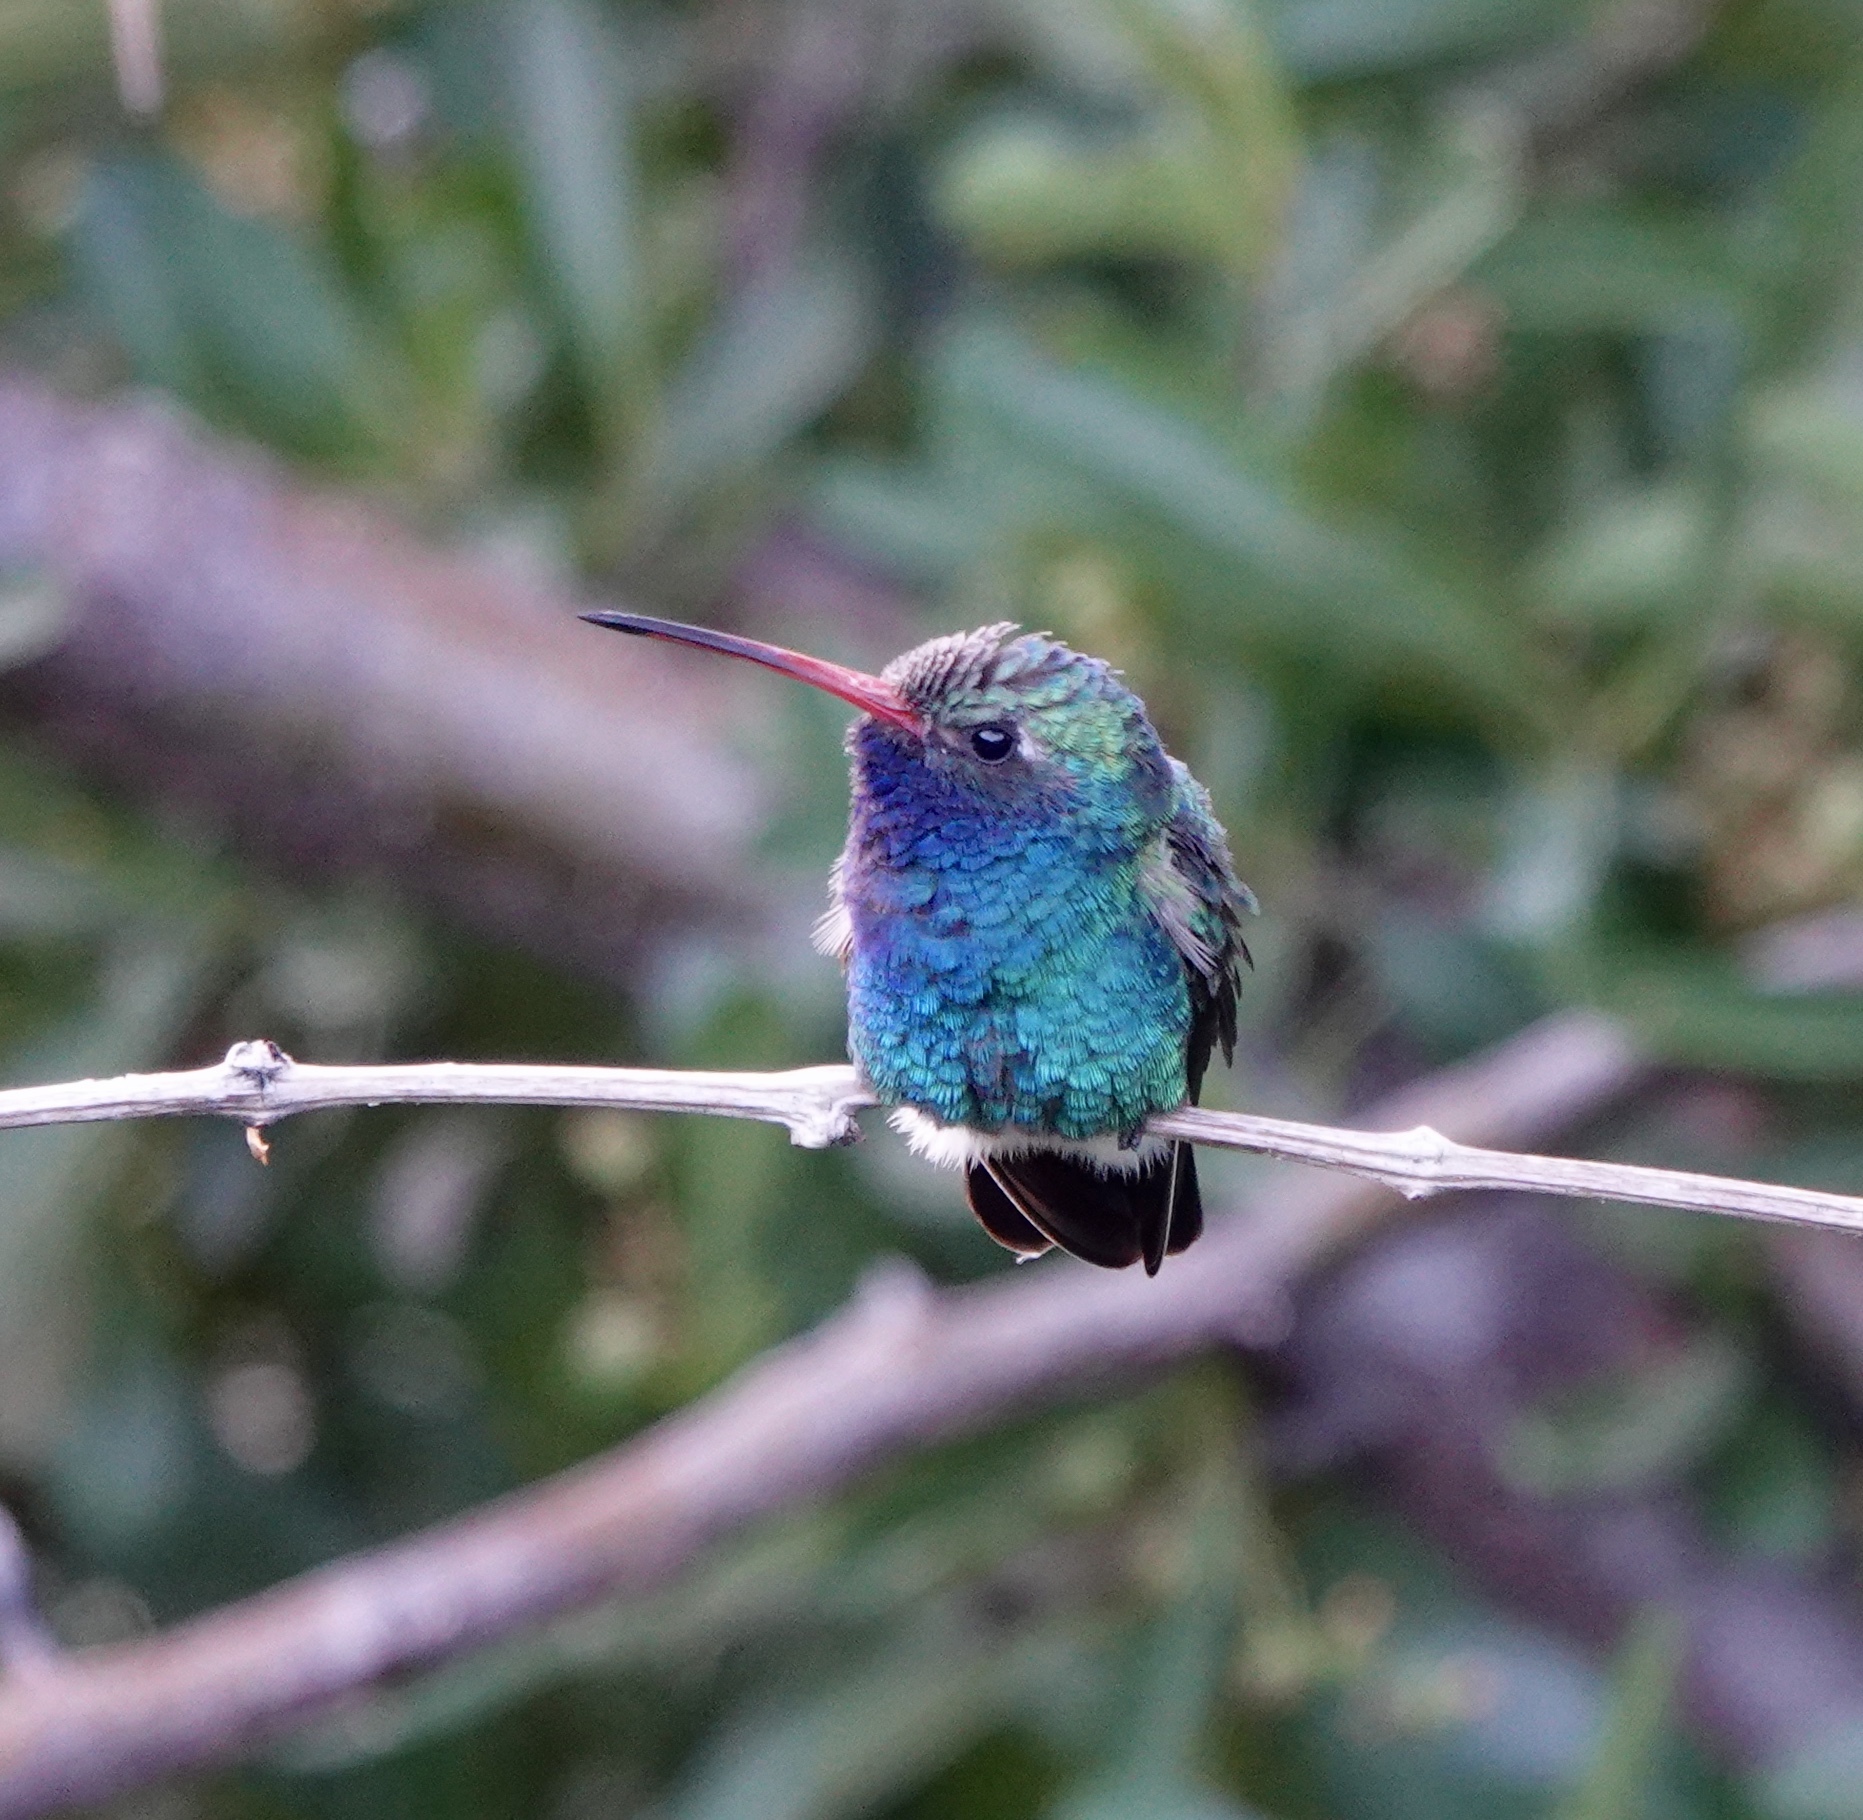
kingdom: Animalia
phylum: Chordata
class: Aves
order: Apodiformes
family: Trochilidae
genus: Cynanthus
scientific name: Cynanthus latirostris
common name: Broad-billed hummingbird
